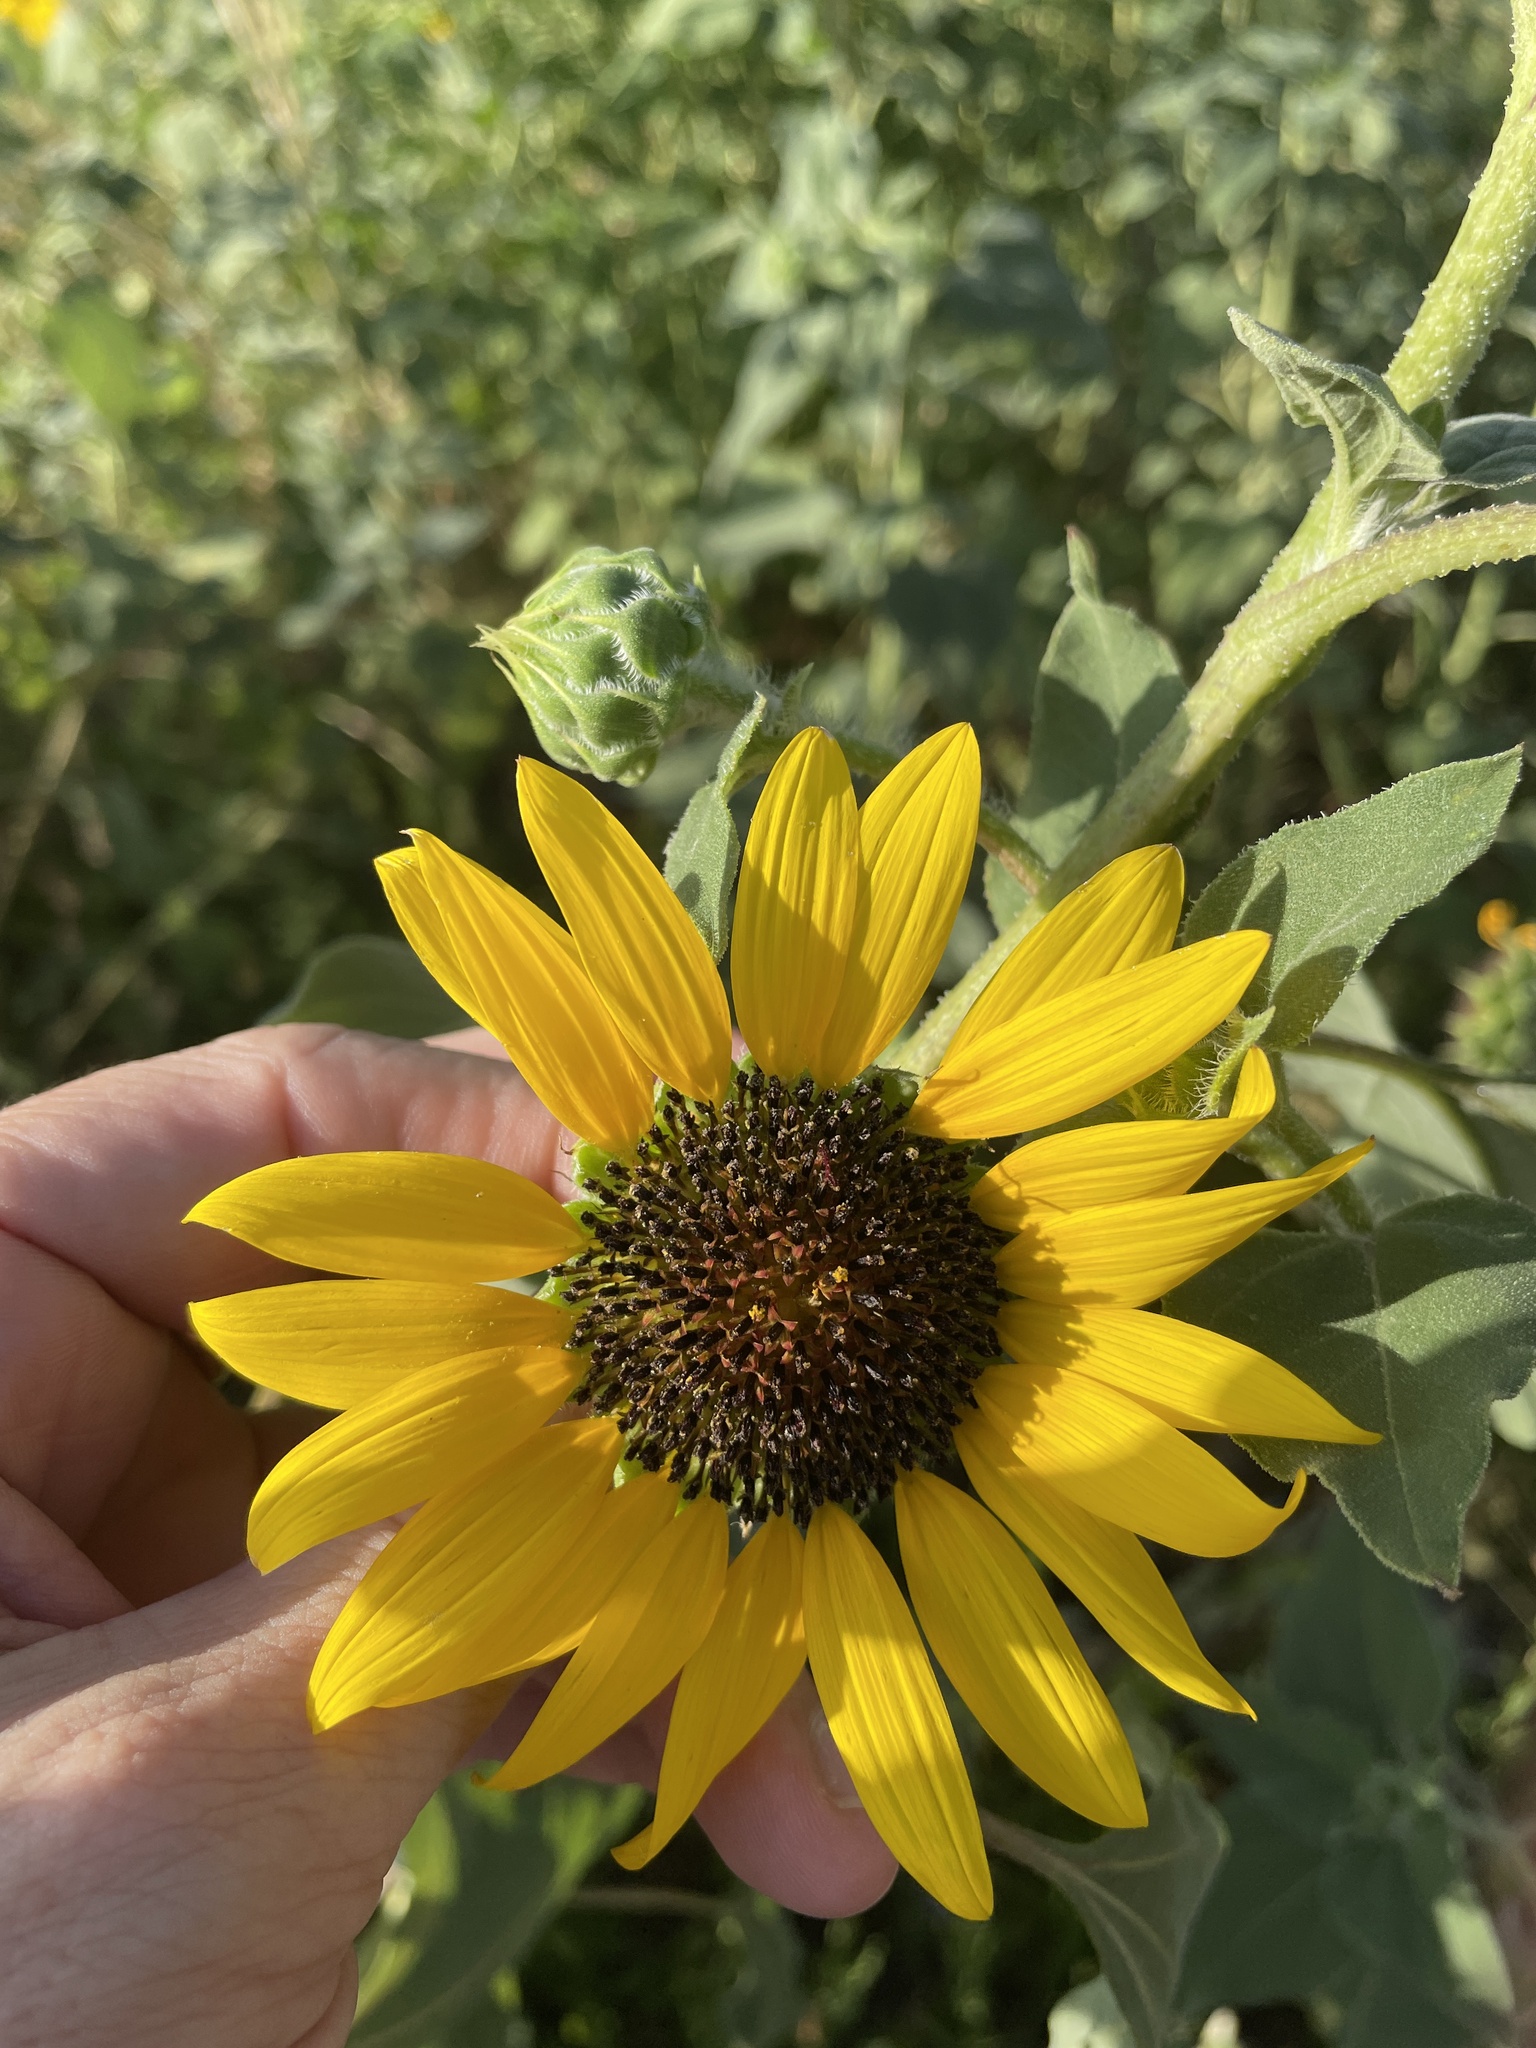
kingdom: Plantae
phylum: Tracheophyta
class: Magnoliopsida
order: Asterales
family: Asteraceae
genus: Helianthus
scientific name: Helianthus annuus
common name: Sunflower
